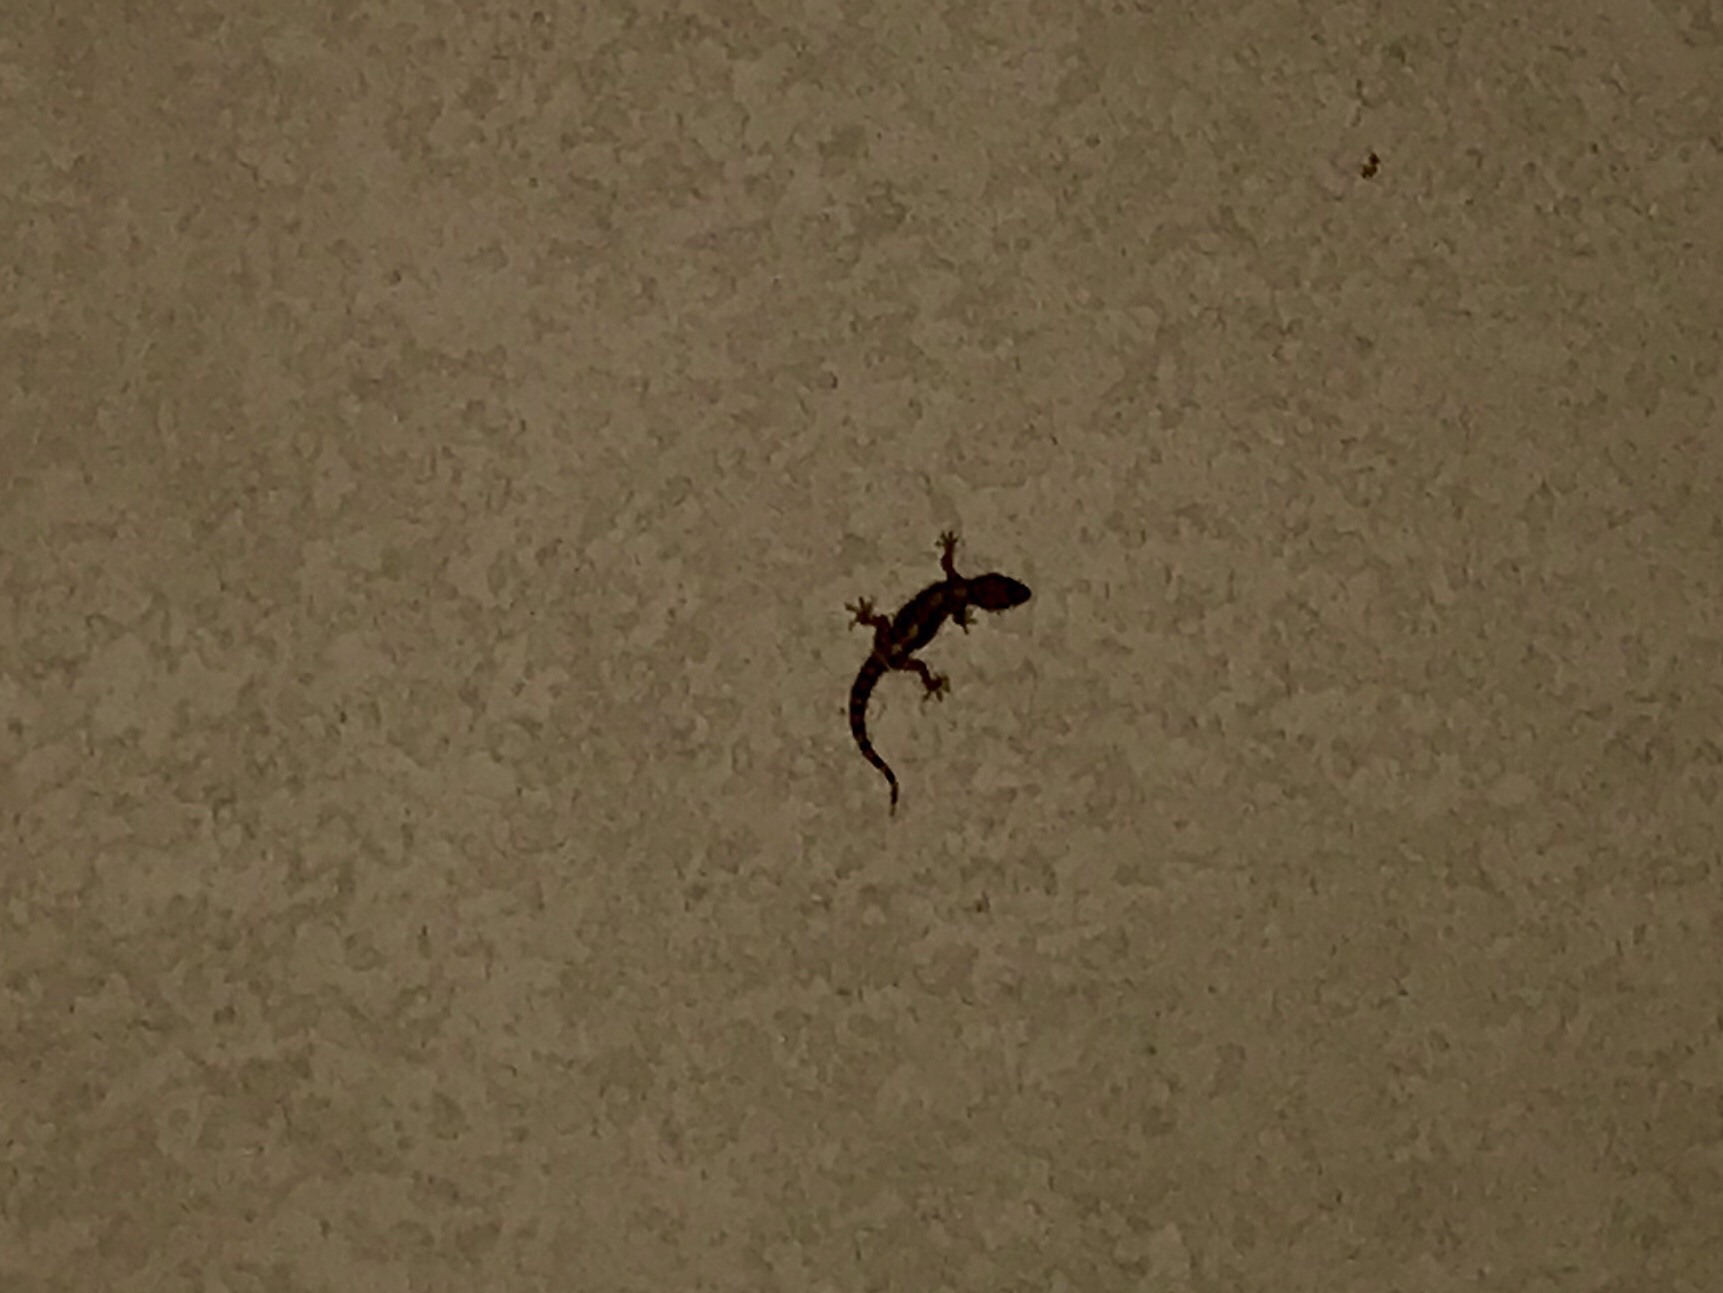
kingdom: Animalia
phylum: Chordata
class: Squamata
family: Gekkonidae
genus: Hemidactylus
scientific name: Hemidactylus turcicus
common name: Turkish gecko
